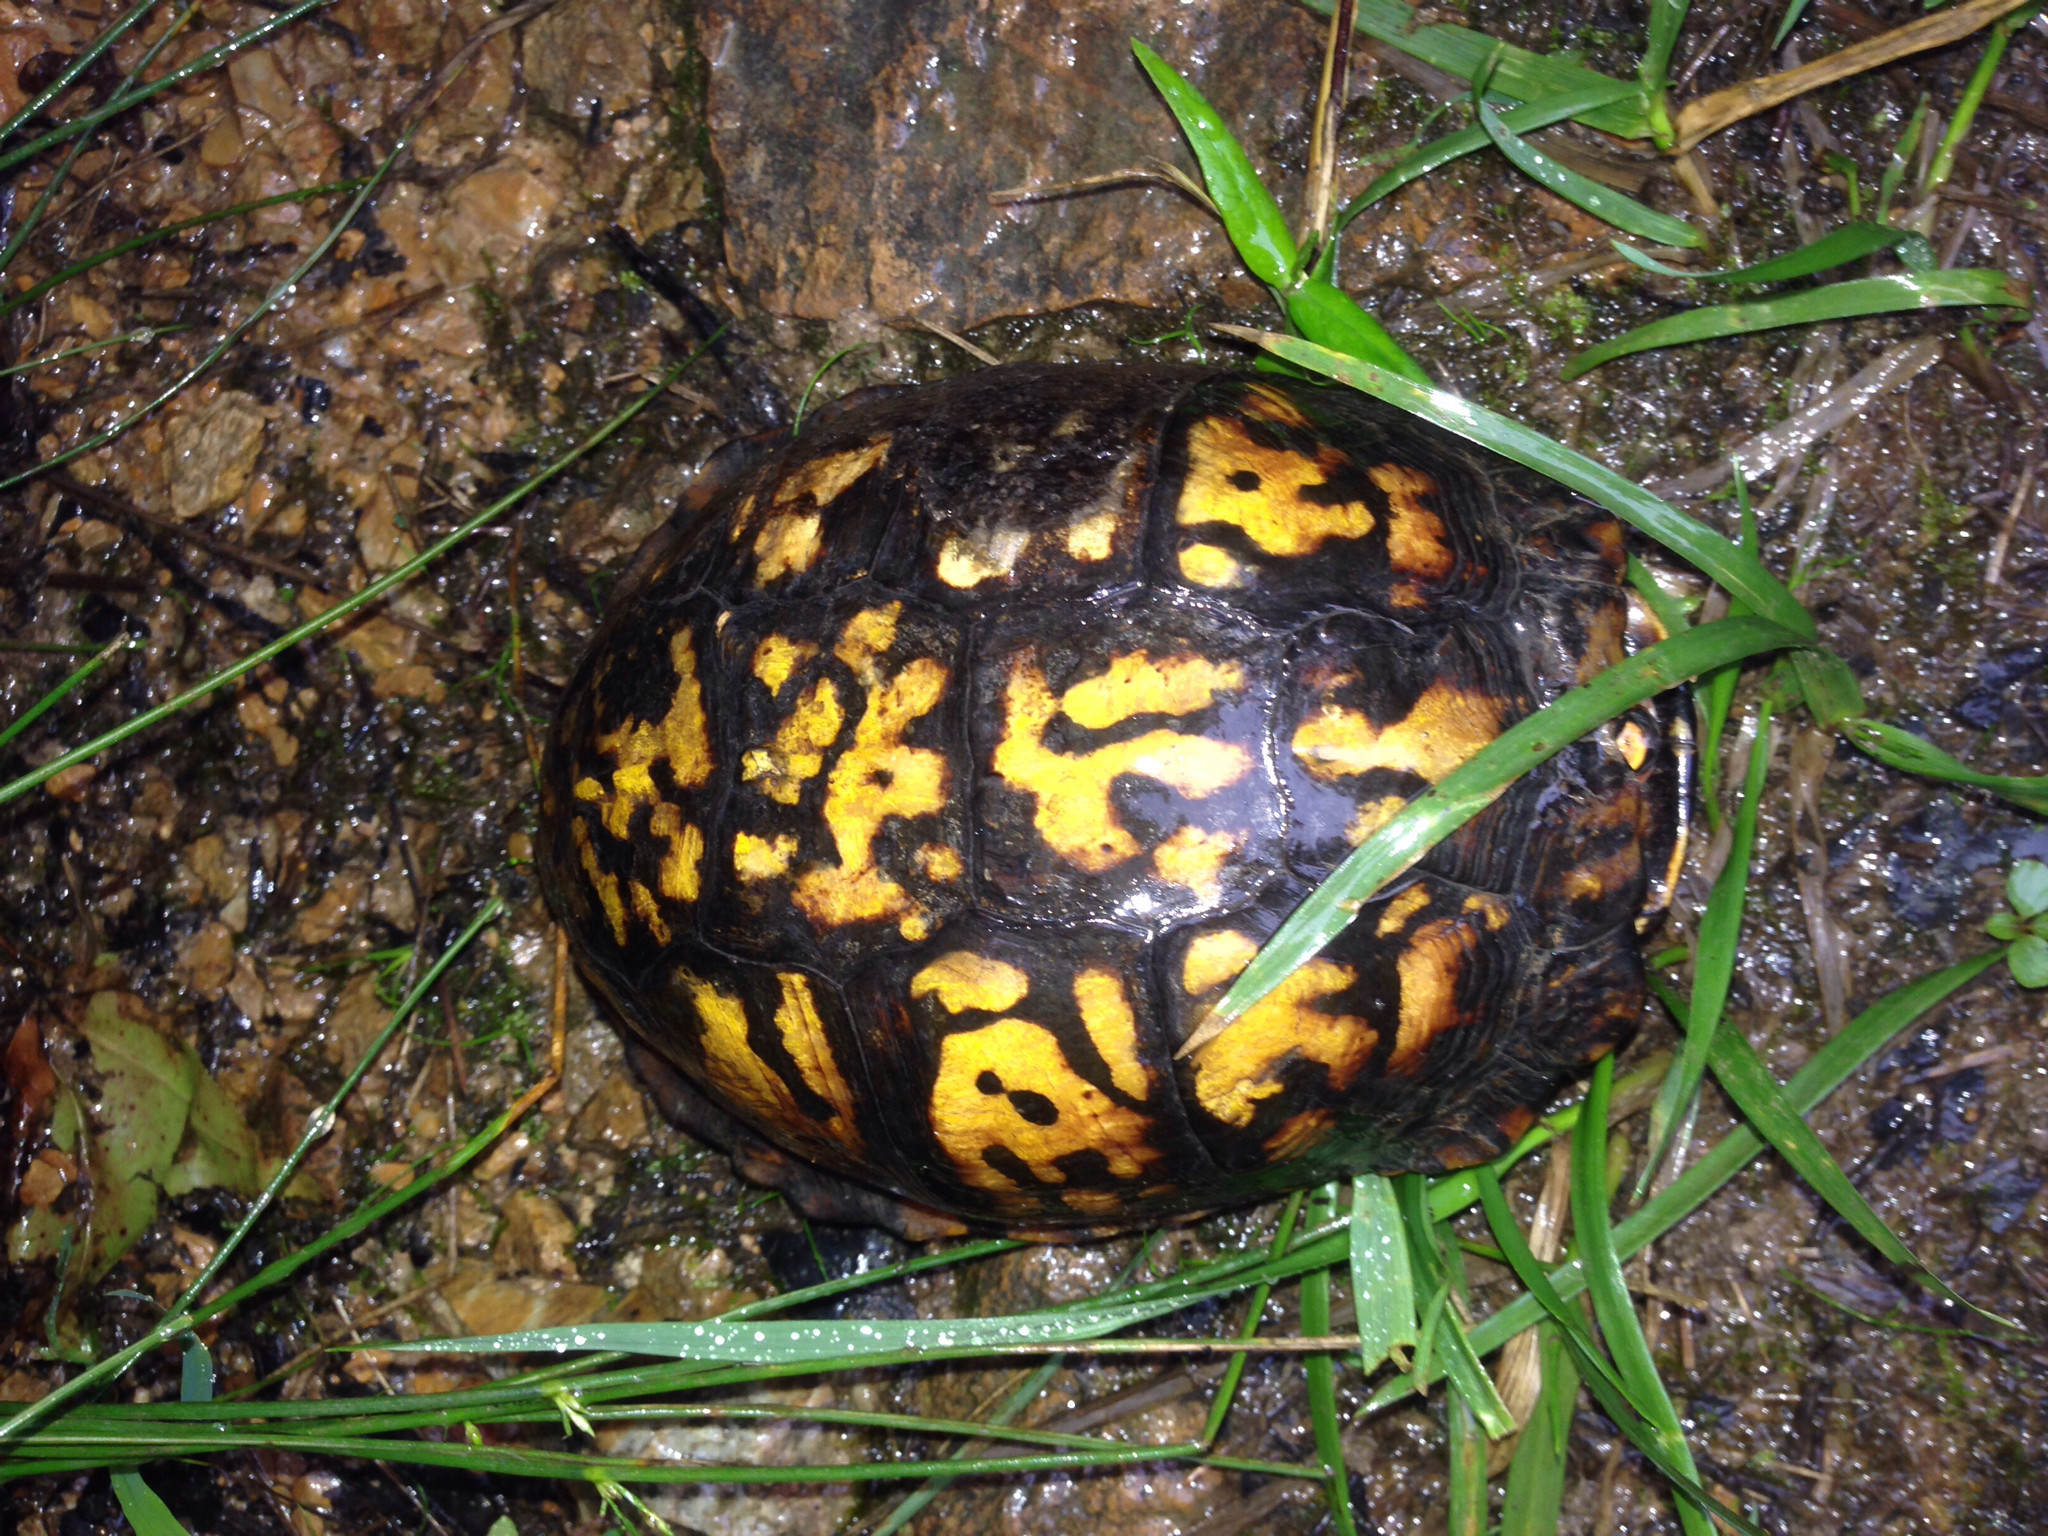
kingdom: Animalia
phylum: Chordata
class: Testudines
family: Emydidae
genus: Terrapene
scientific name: Terrapene carolina
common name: Common box turtle
